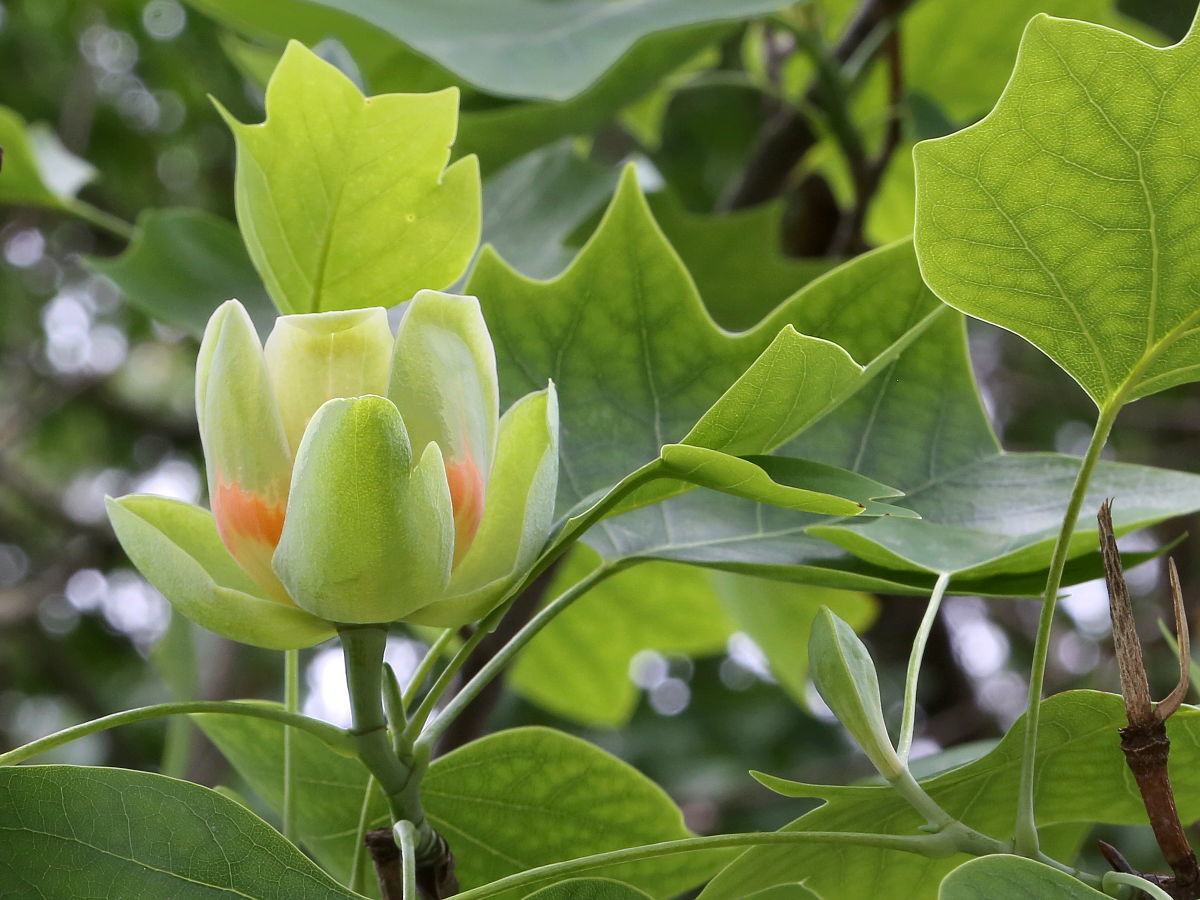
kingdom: Plantae
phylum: Tracheophyta
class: Magnoliopsida
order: Magnoliales
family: Magnoliaceae
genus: Liriodendron
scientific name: Liriodendron tulipifera
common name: Tulip tree
